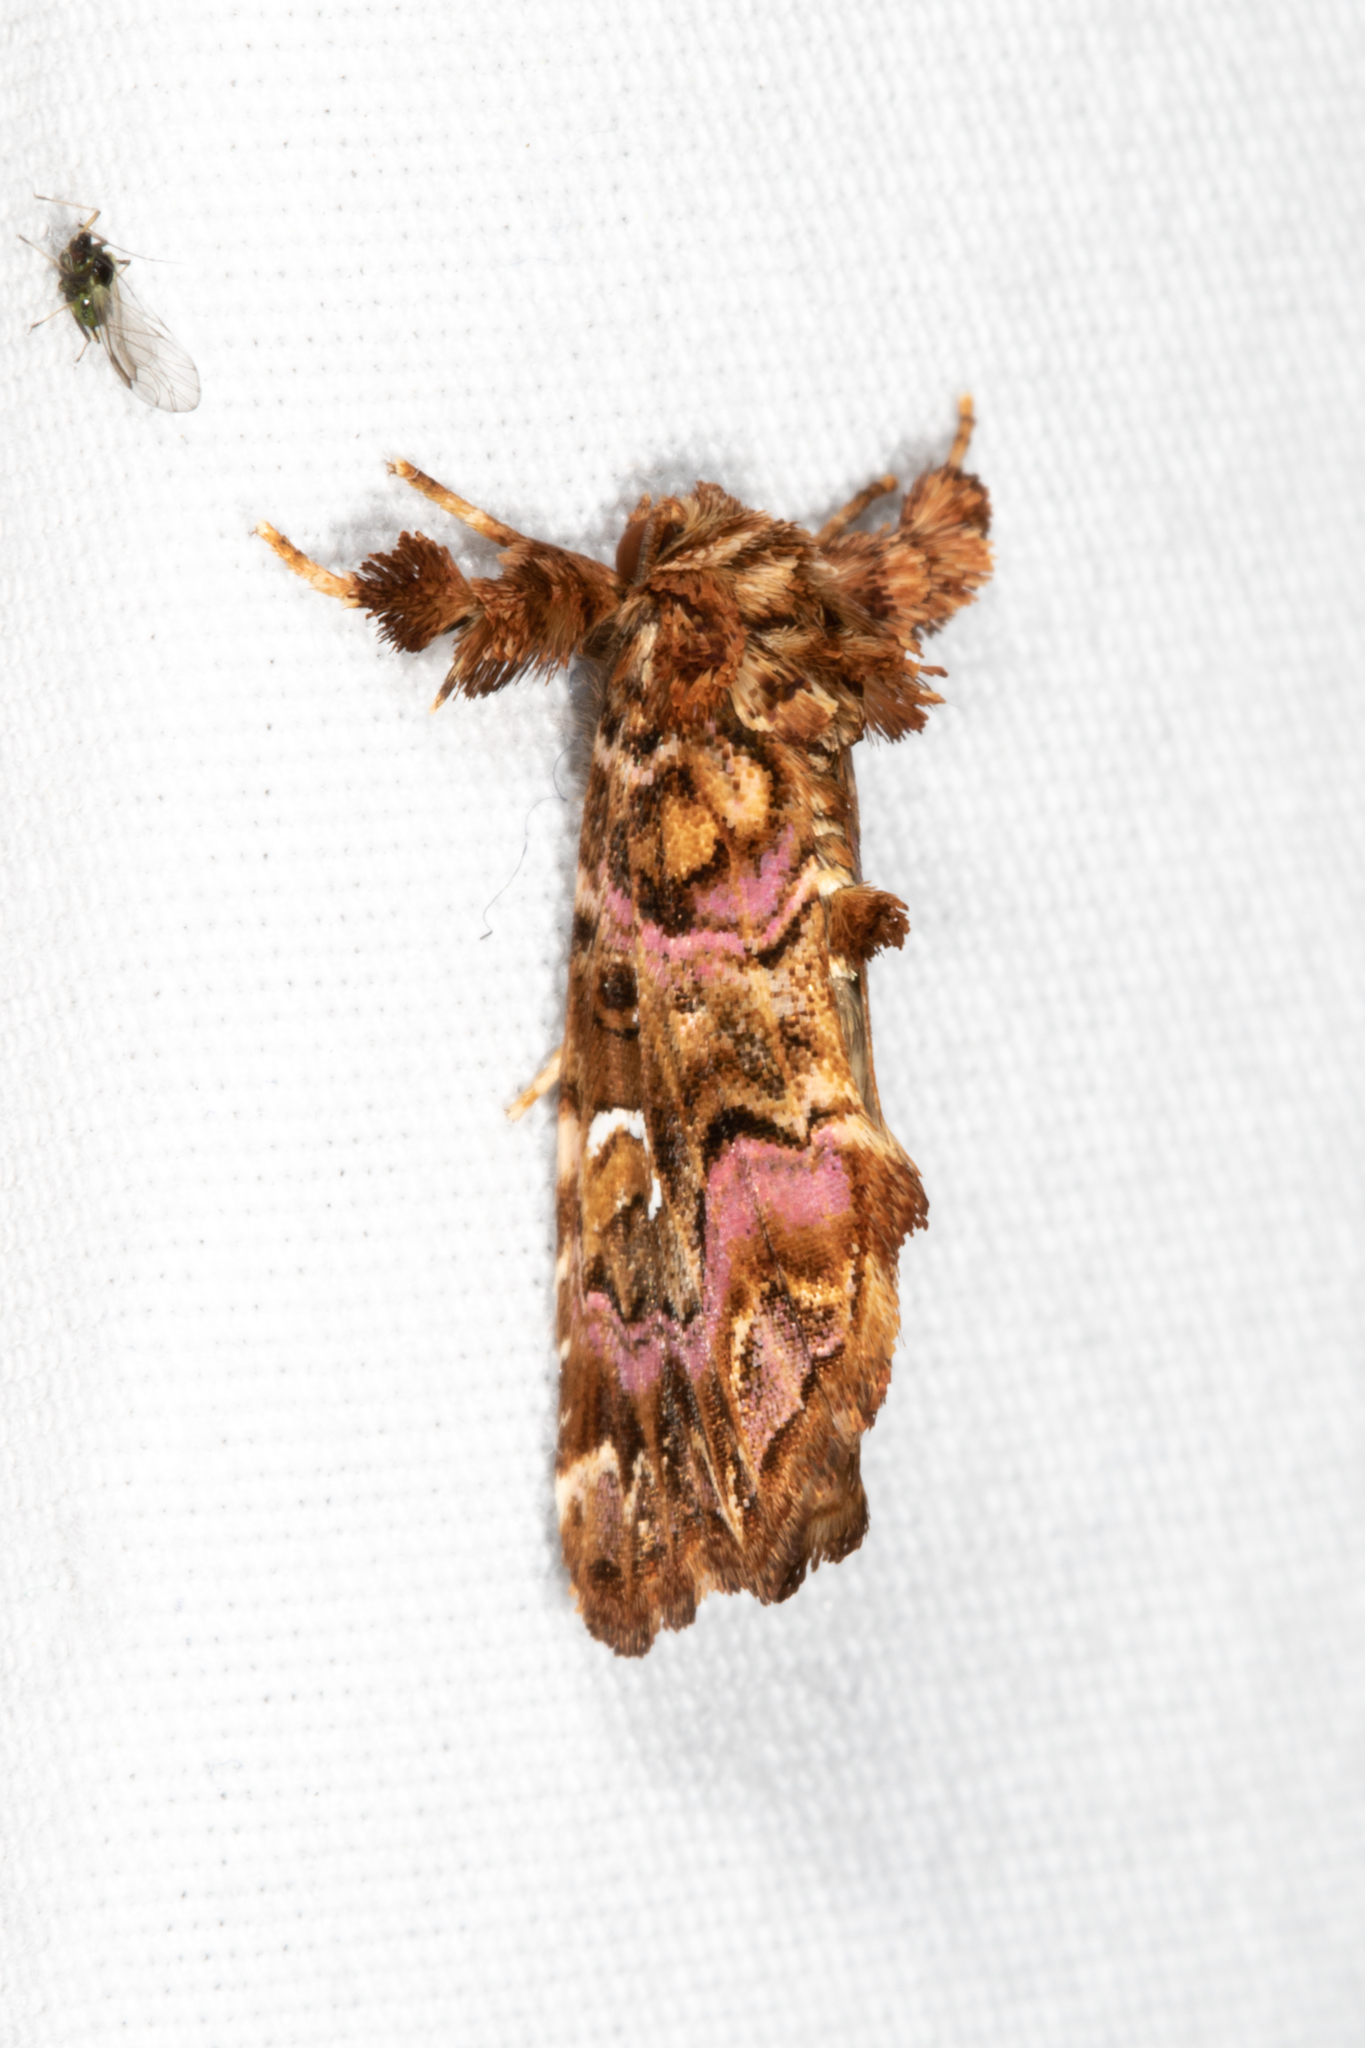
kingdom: Animalia
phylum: Arthropoda
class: Insecta
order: Lepidoptera
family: Noctuidae
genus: Callopistria
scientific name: Callopistria mollissima
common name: Pink-shaded fern moth
